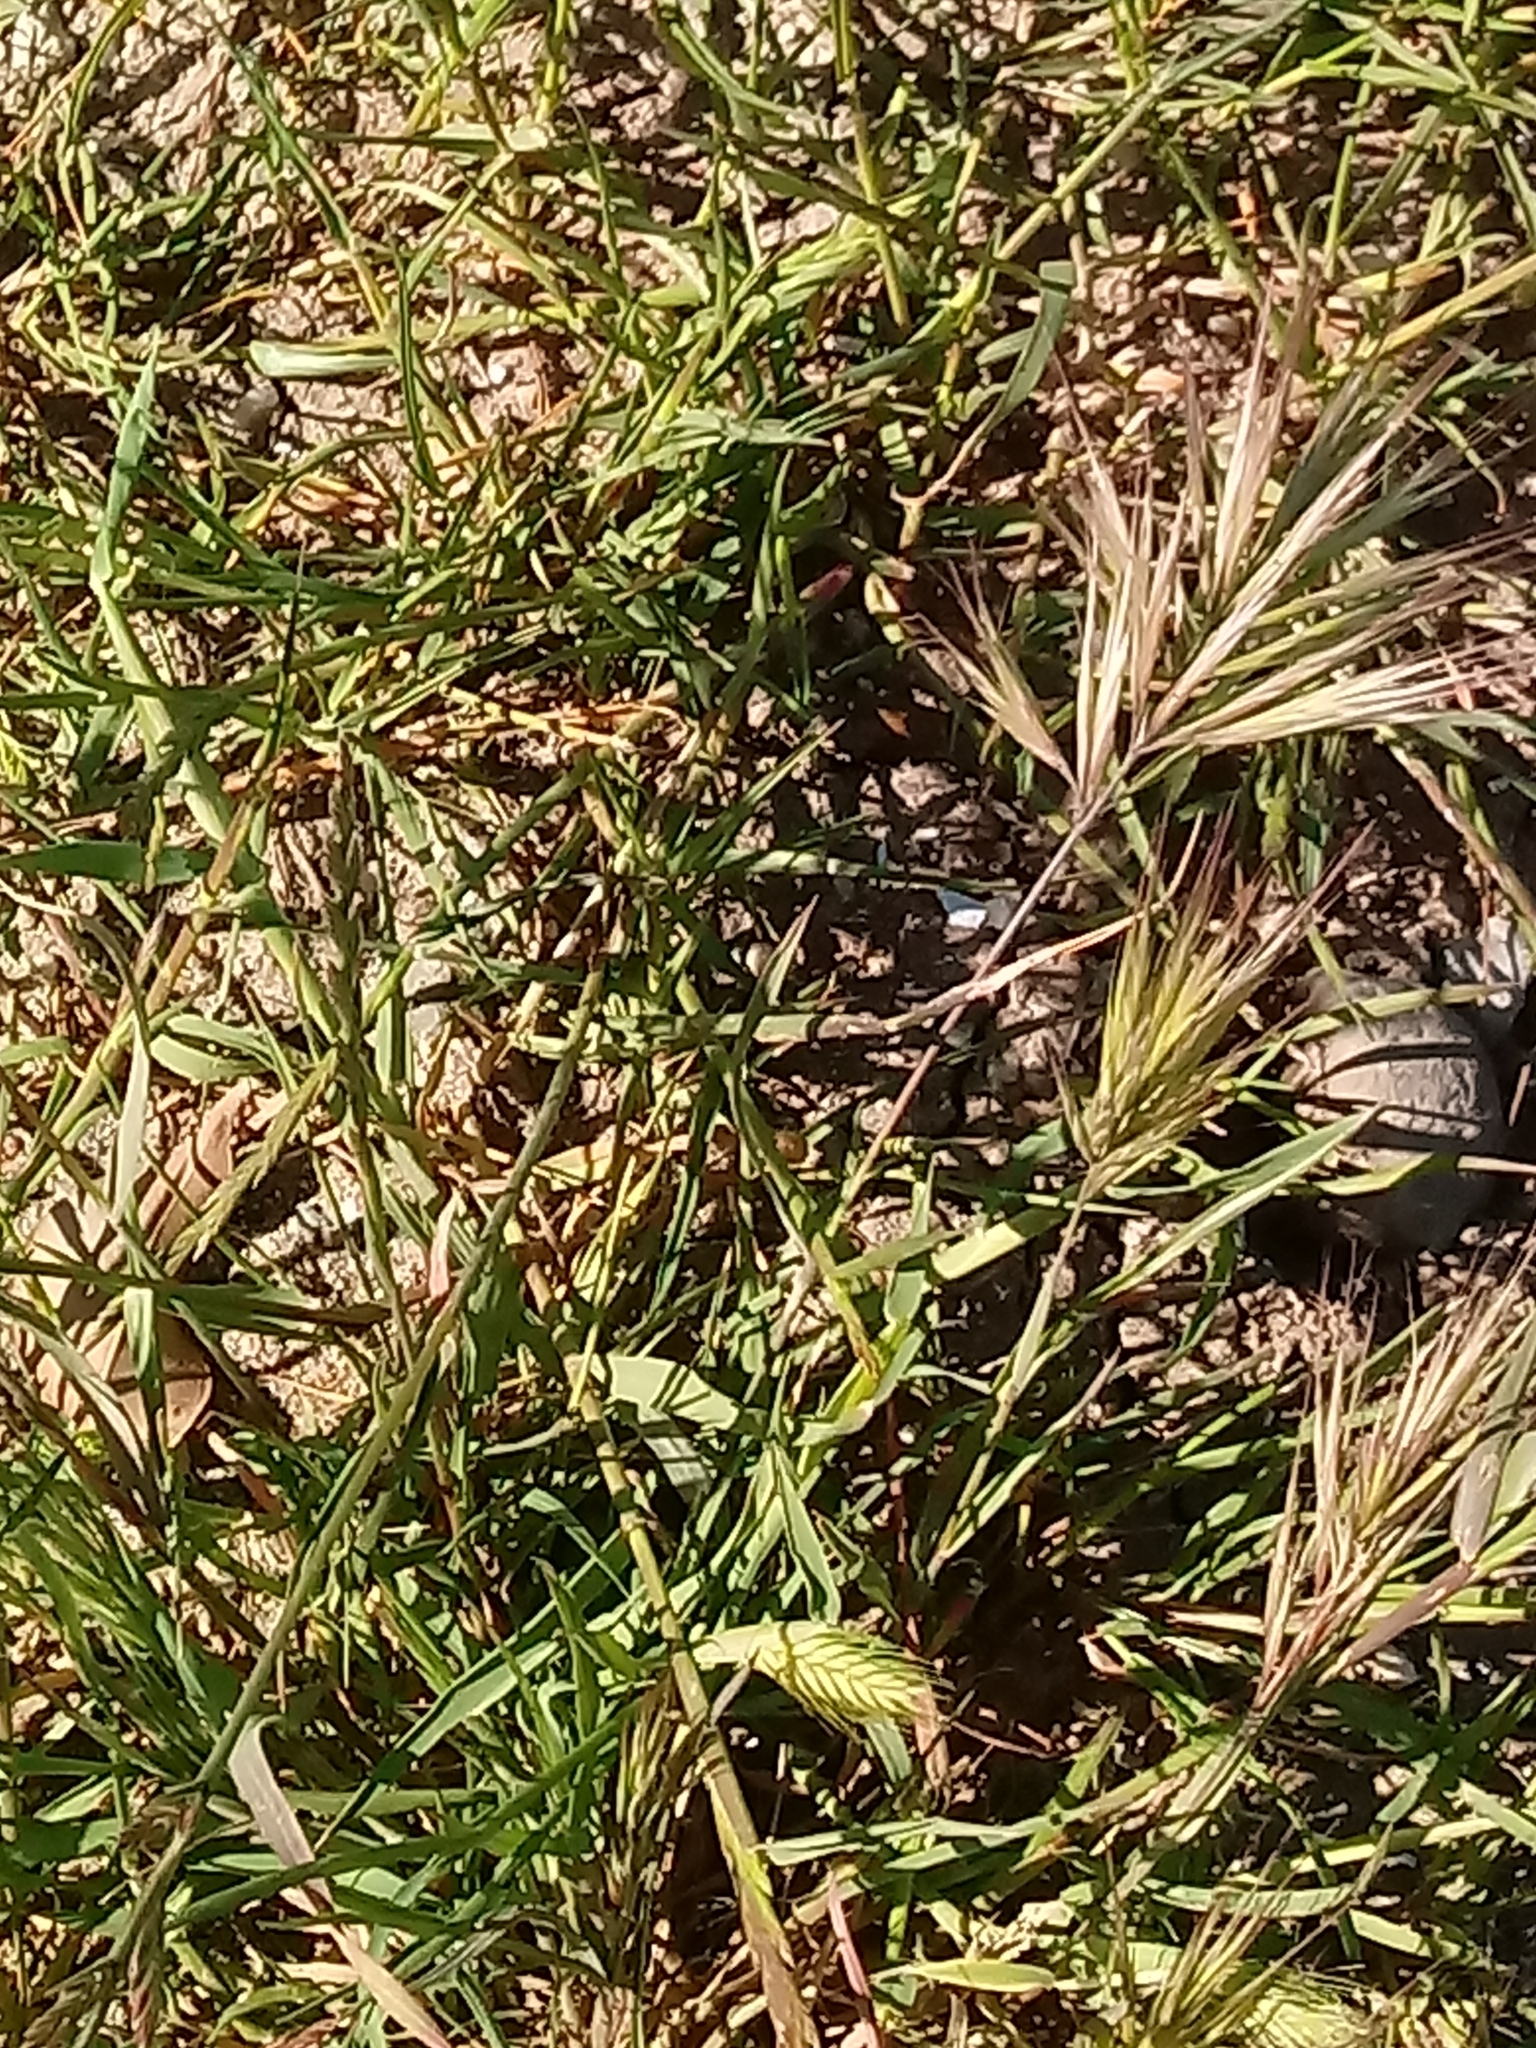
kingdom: Plantae
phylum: Tracheophyta
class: Liliopsida
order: Poales
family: Poaceae
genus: Bromus
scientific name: Bromus madritensis
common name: Compact brome
